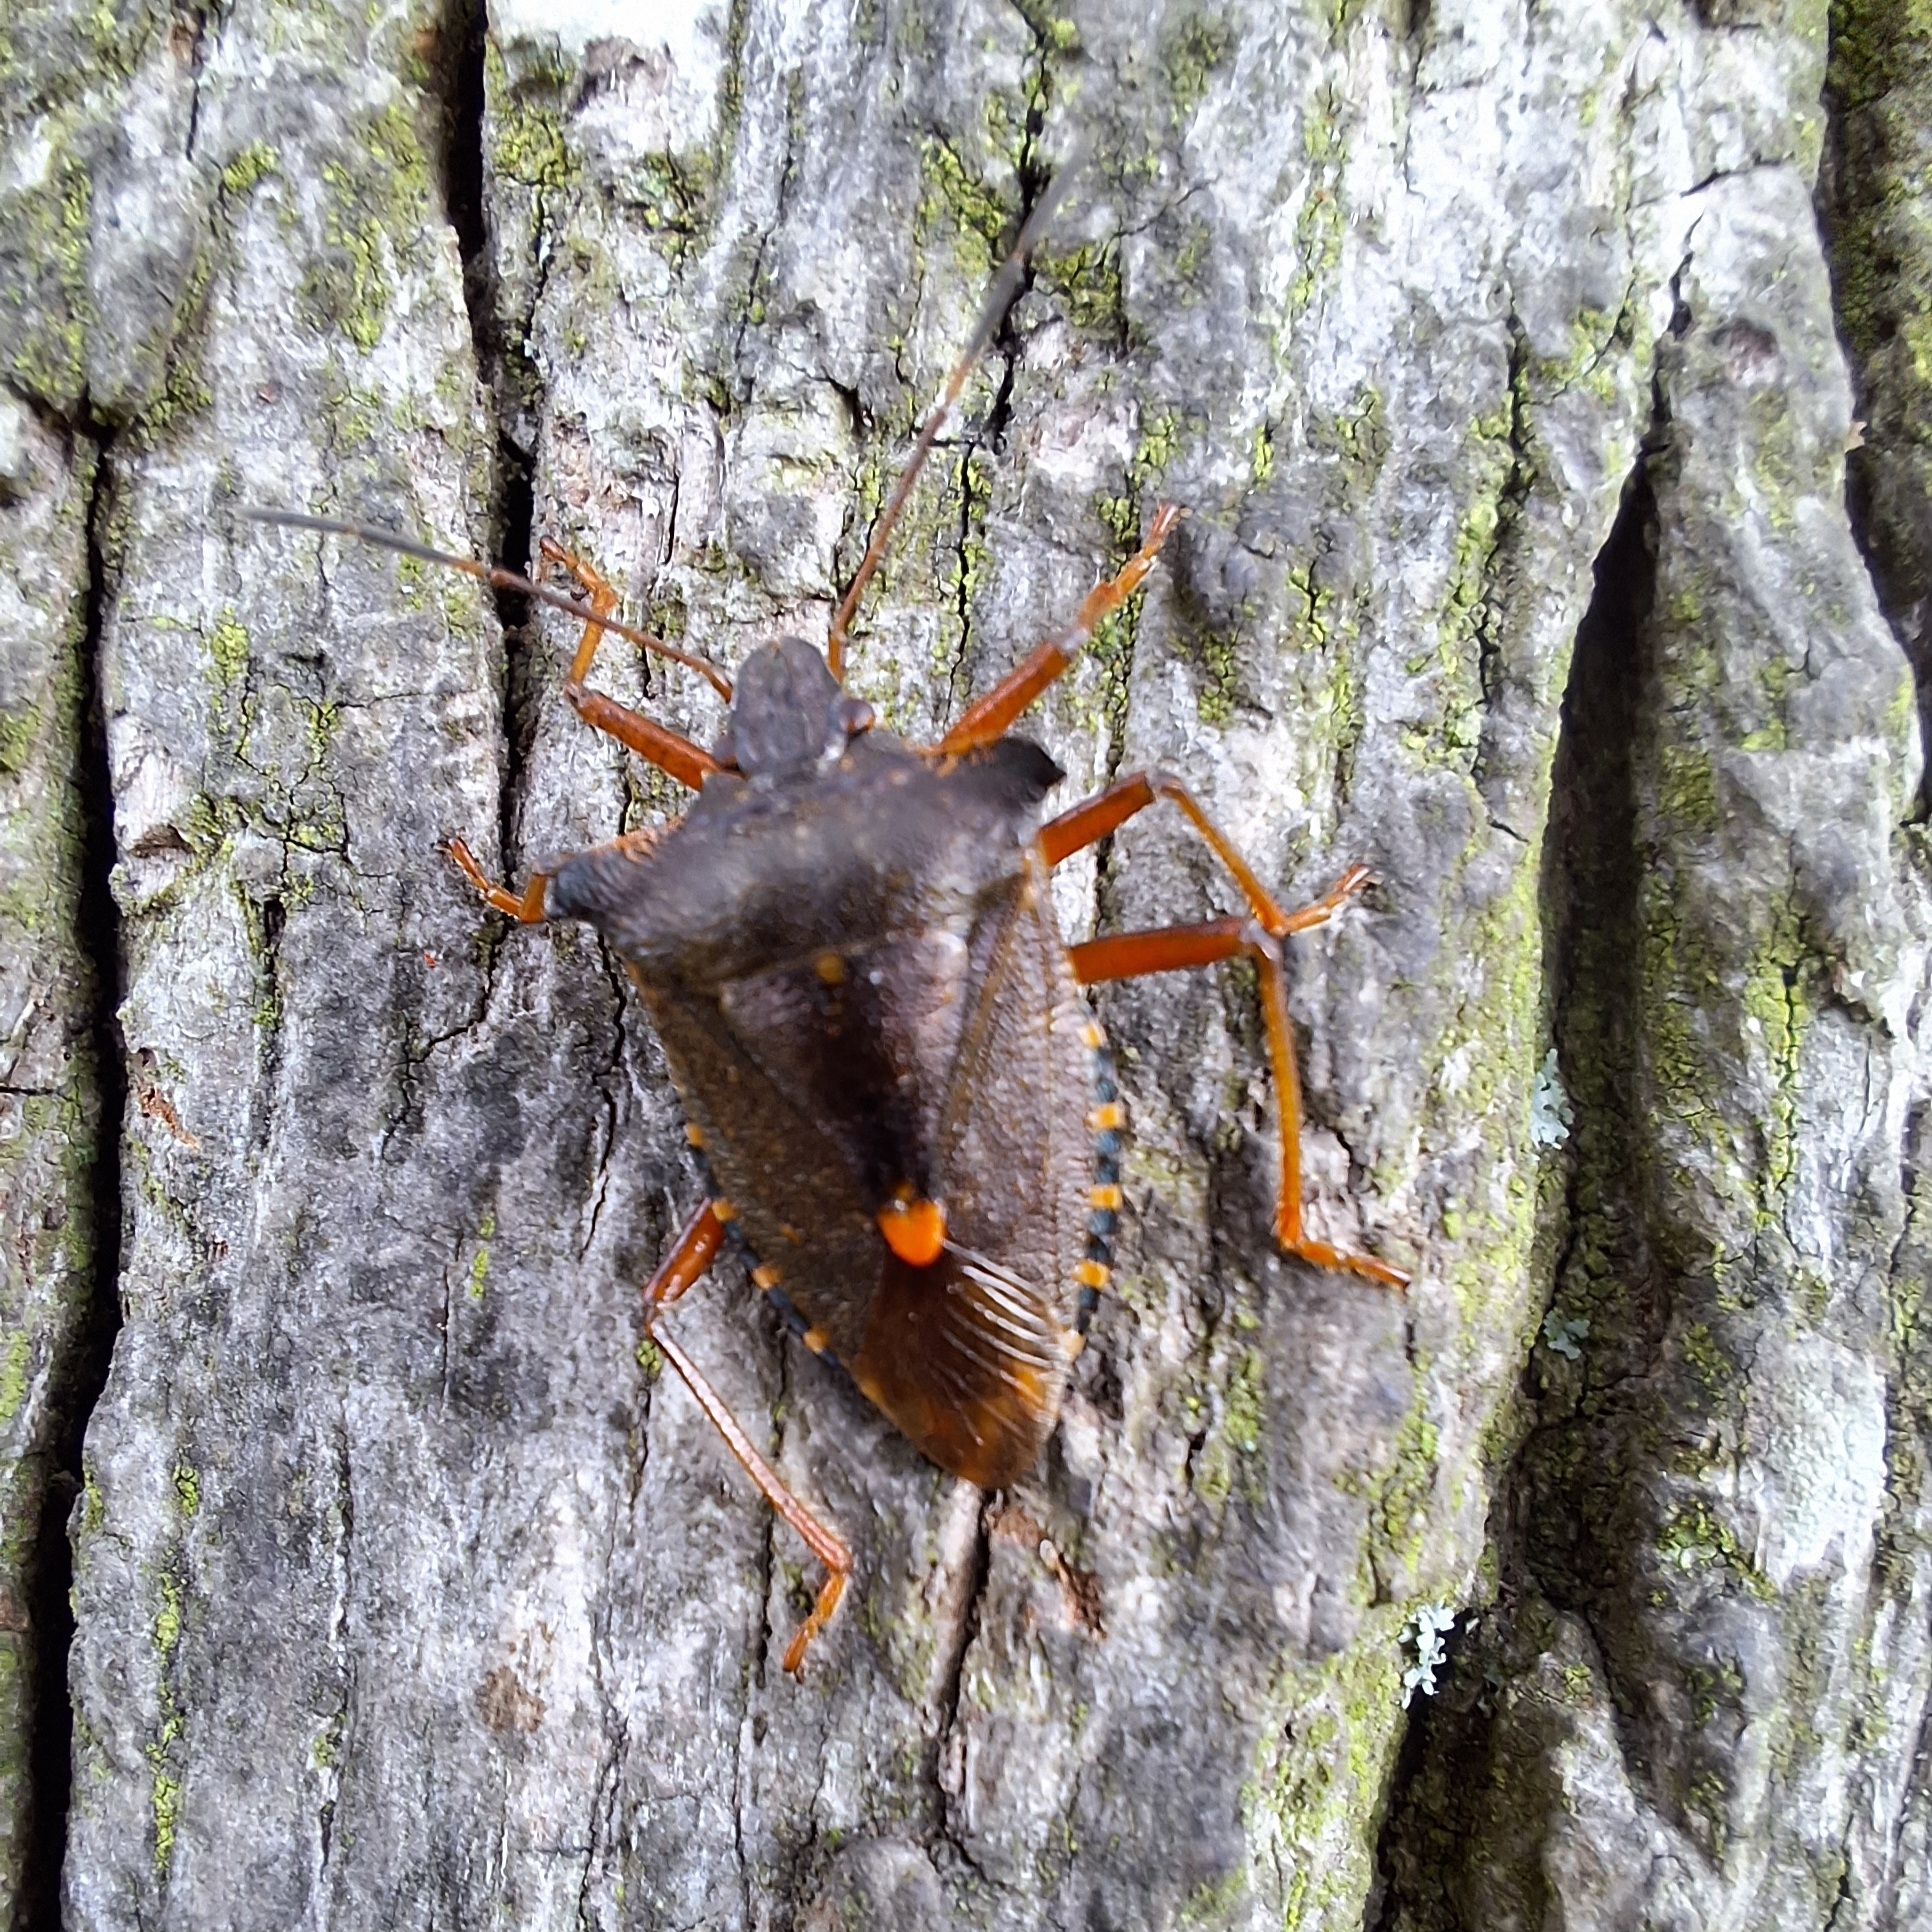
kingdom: Animalia
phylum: Arthropoda
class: Insecta
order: Hemiptera
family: Pentatomidae
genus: Pentatoma
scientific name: Pentatoma rufipes
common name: Forest bug
